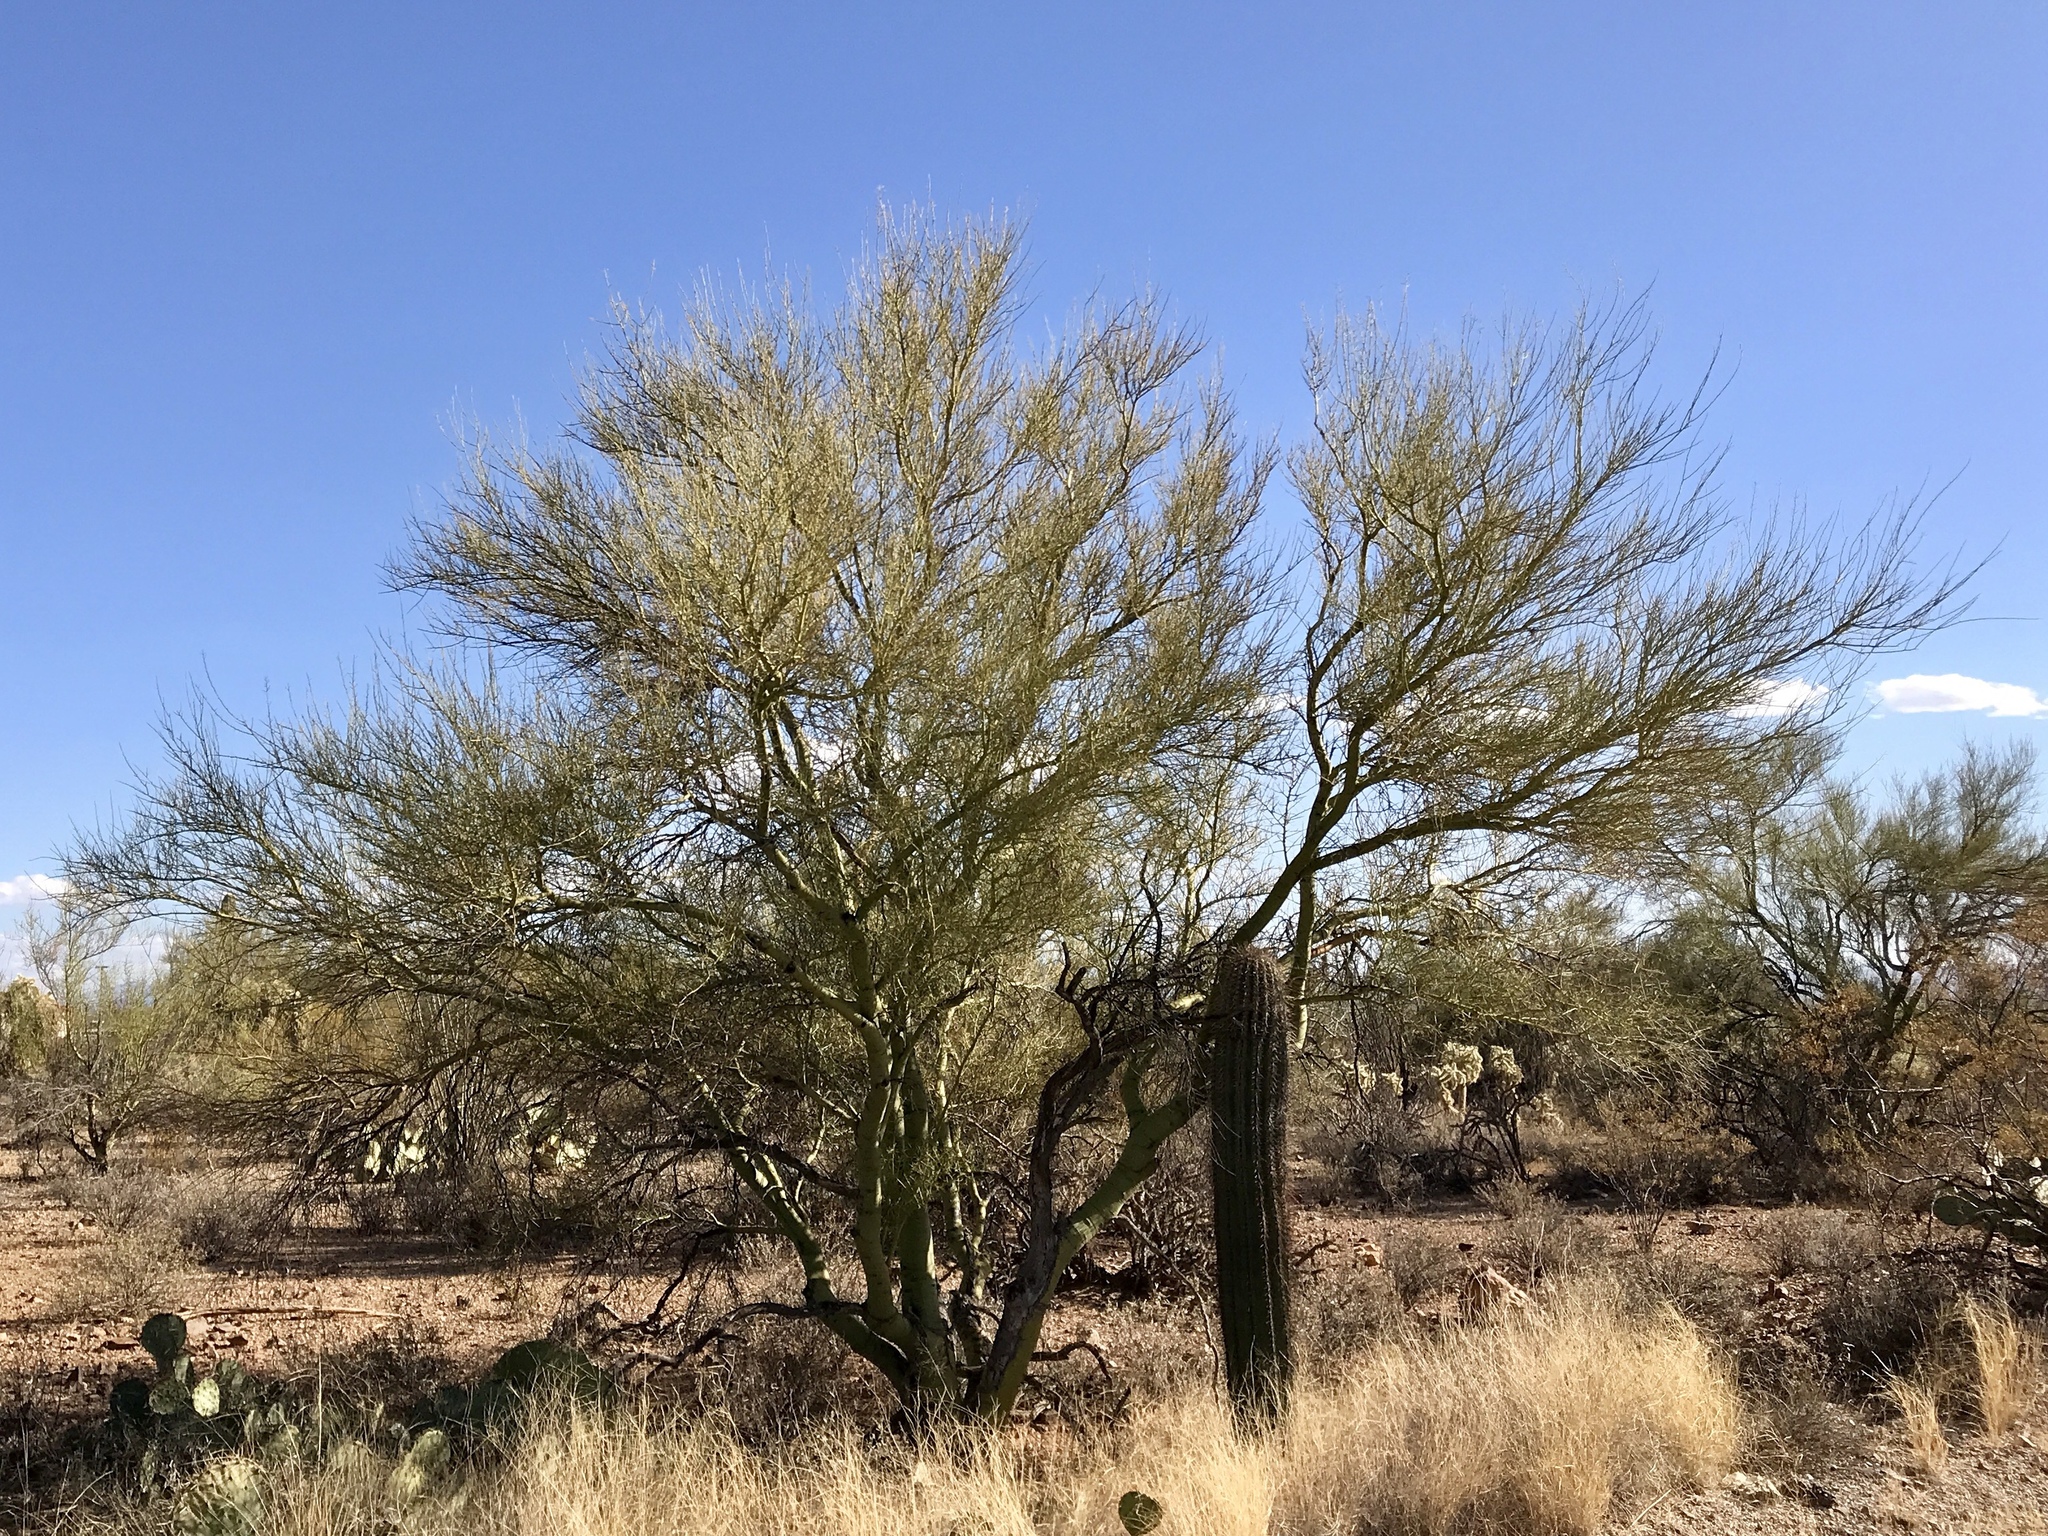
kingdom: Plantae
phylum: Tracheophyta
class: Magnoliopsida
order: Fabales
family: Fabaceae
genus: Parkinsonia
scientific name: Parkinsonia microphylla
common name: Yellow paloverde
